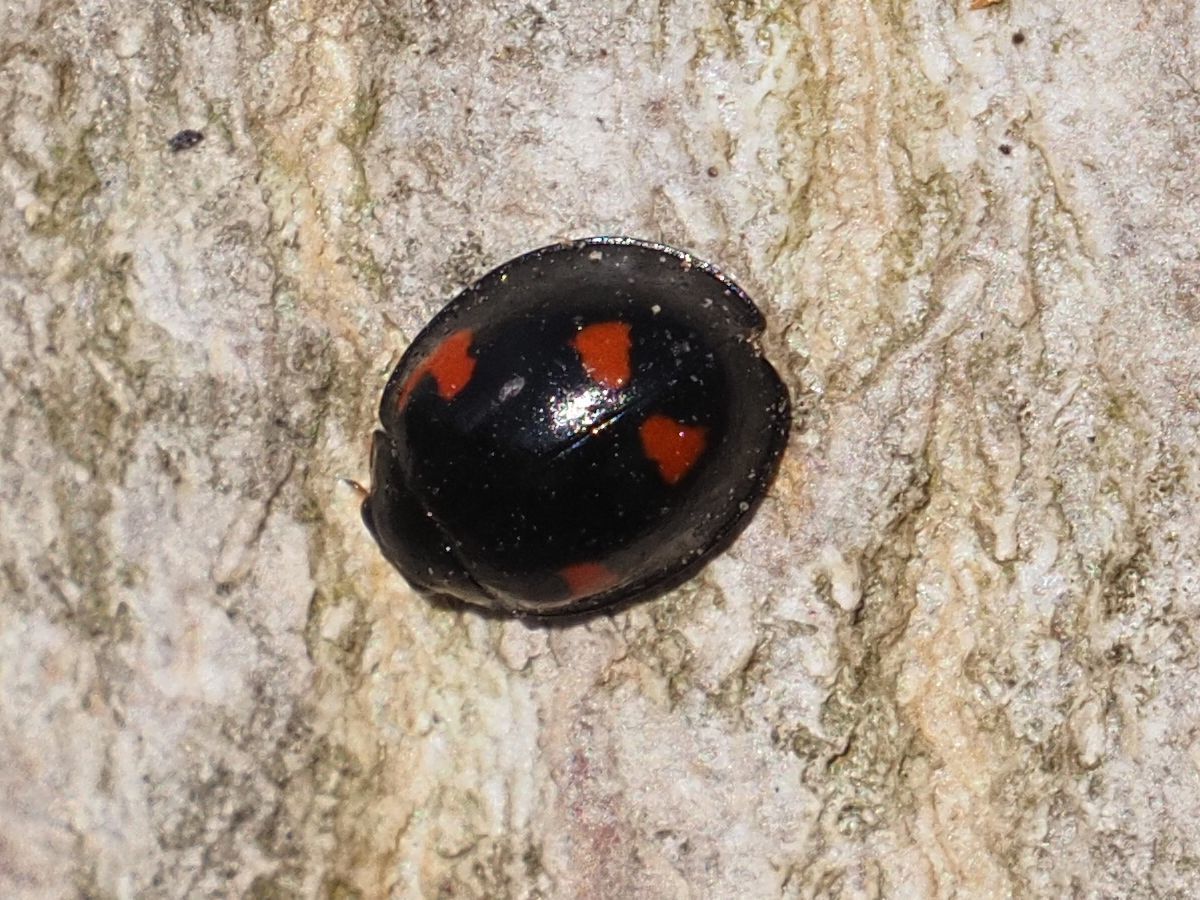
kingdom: Animalia
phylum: Arthropoda
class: Insecta
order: Coleoptera
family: Coccinellidae
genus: Brumus
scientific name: Brumus quadripustulatus
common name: Ladybird beetle
